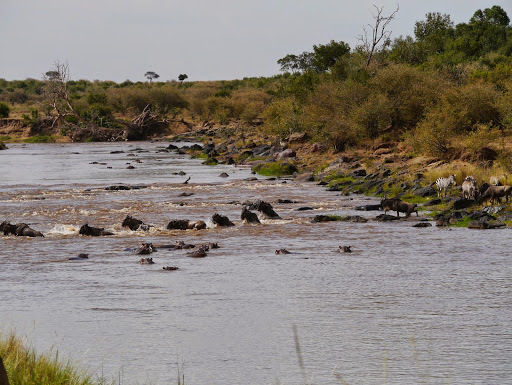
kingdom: Animalia
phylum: Chordata
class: Mammalia
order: Artiodactyla
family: Hippopotamidae
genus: Hippopotamus
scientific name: Hippopotamus amphibius
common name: Common hippopotamus
